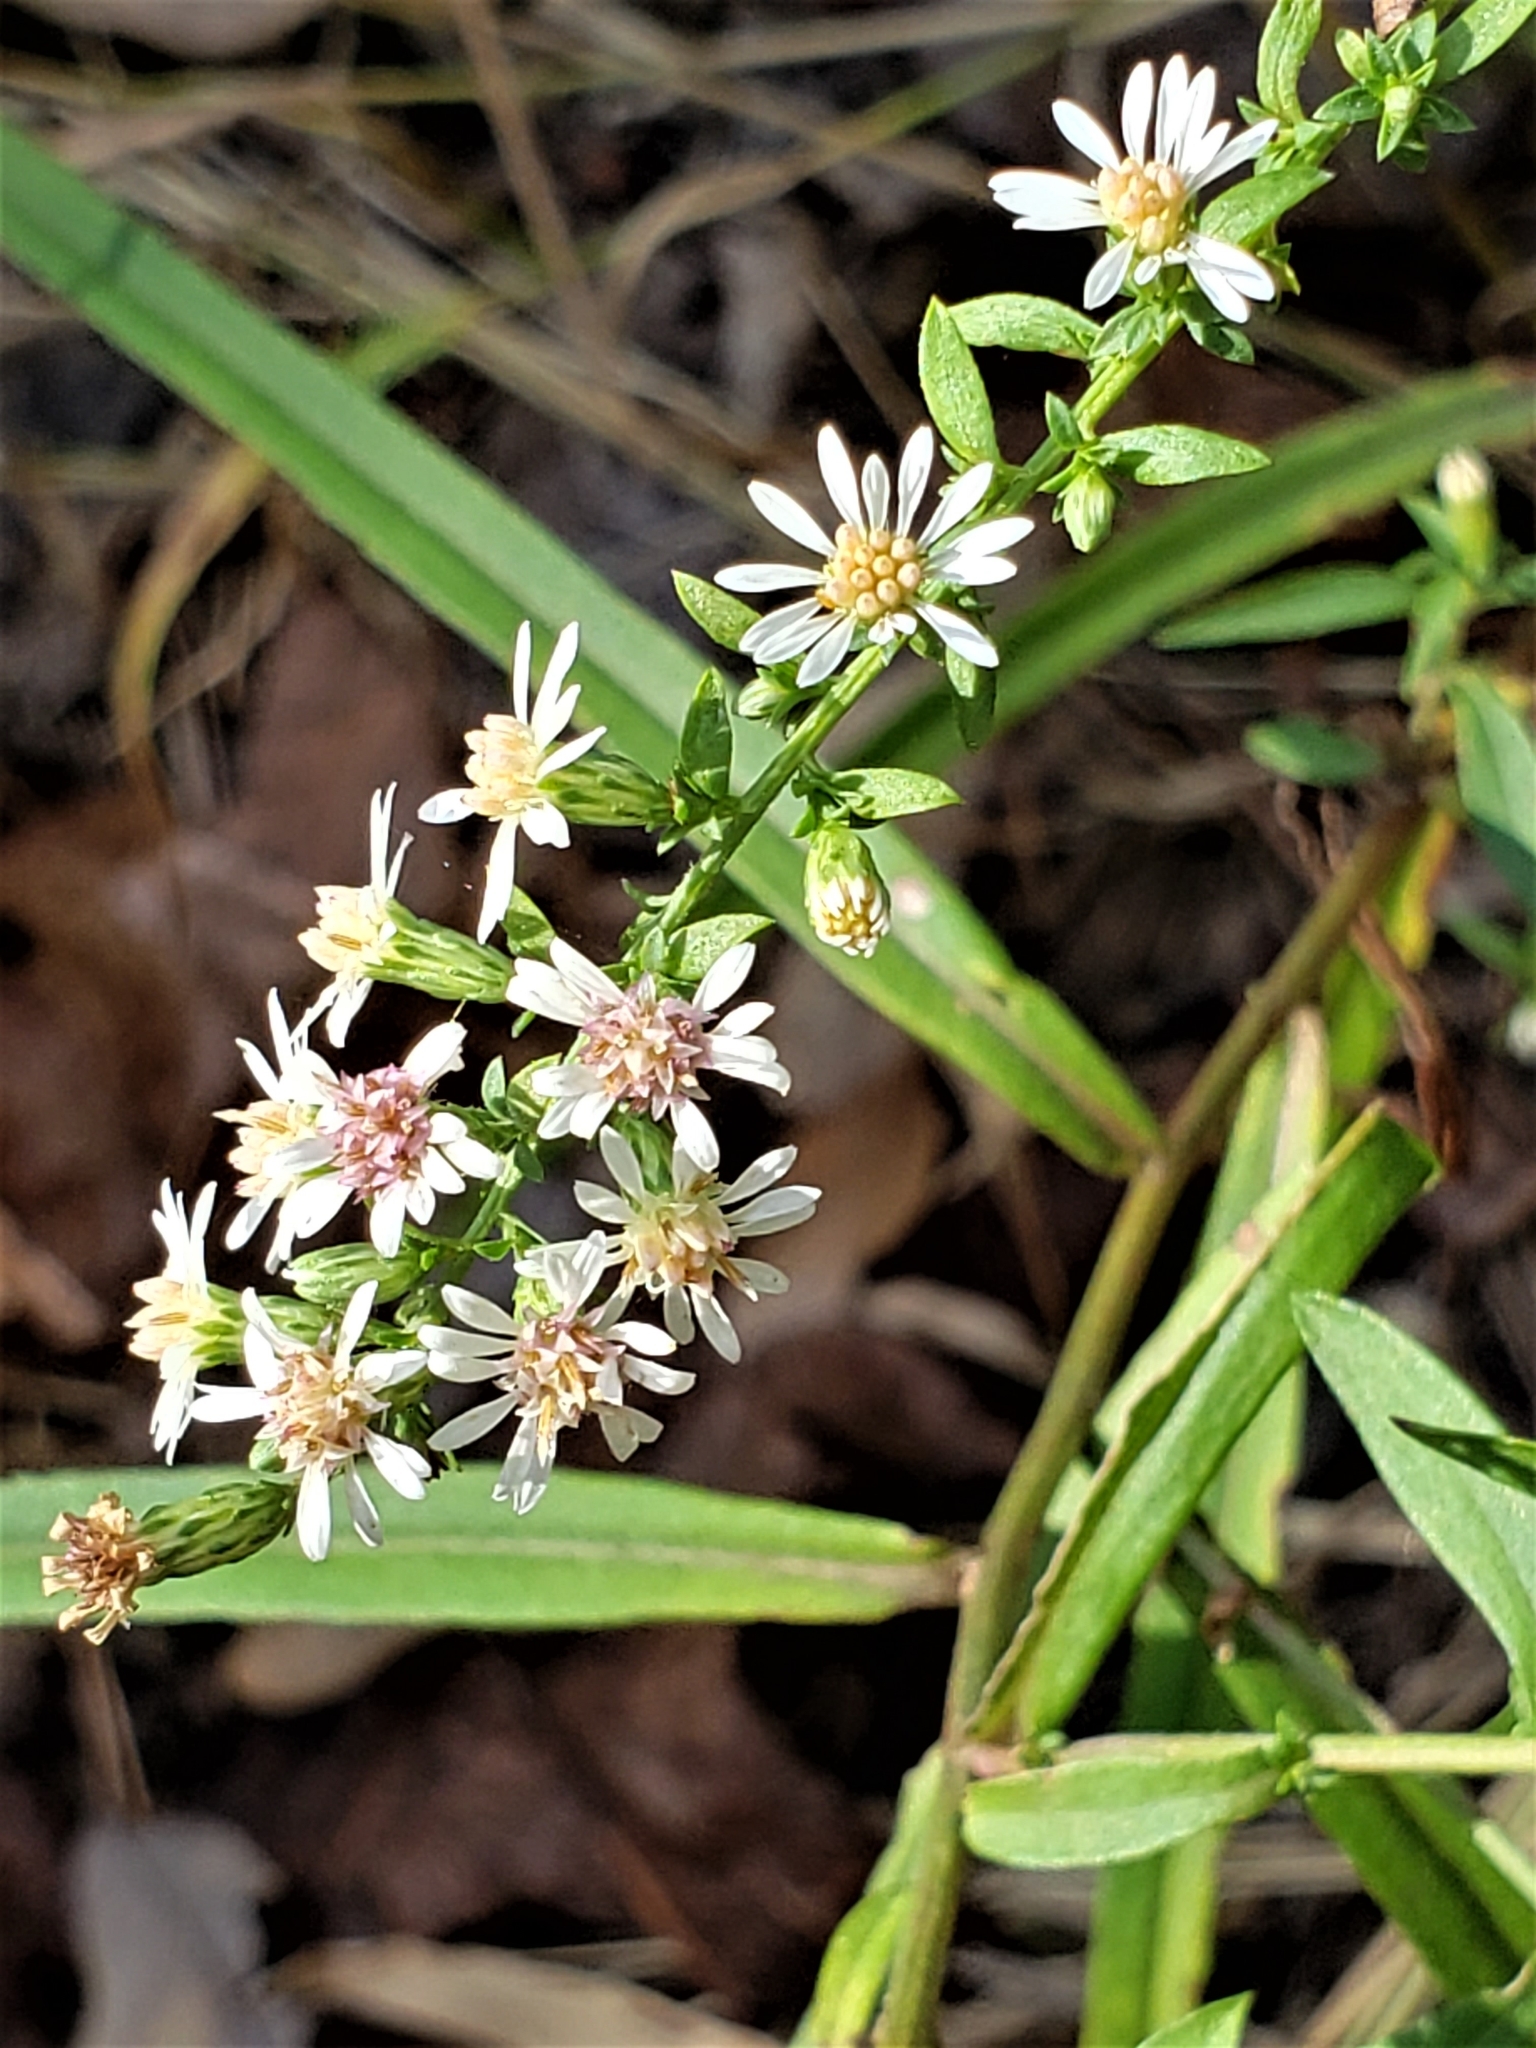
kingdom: Plantae
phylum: Tracheophyta
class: Magnoliopsida
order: Asterales
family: Asteraceae
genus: Symphyotrichum
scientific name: Symphyotrichum lateriflorum
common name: Calico aster
